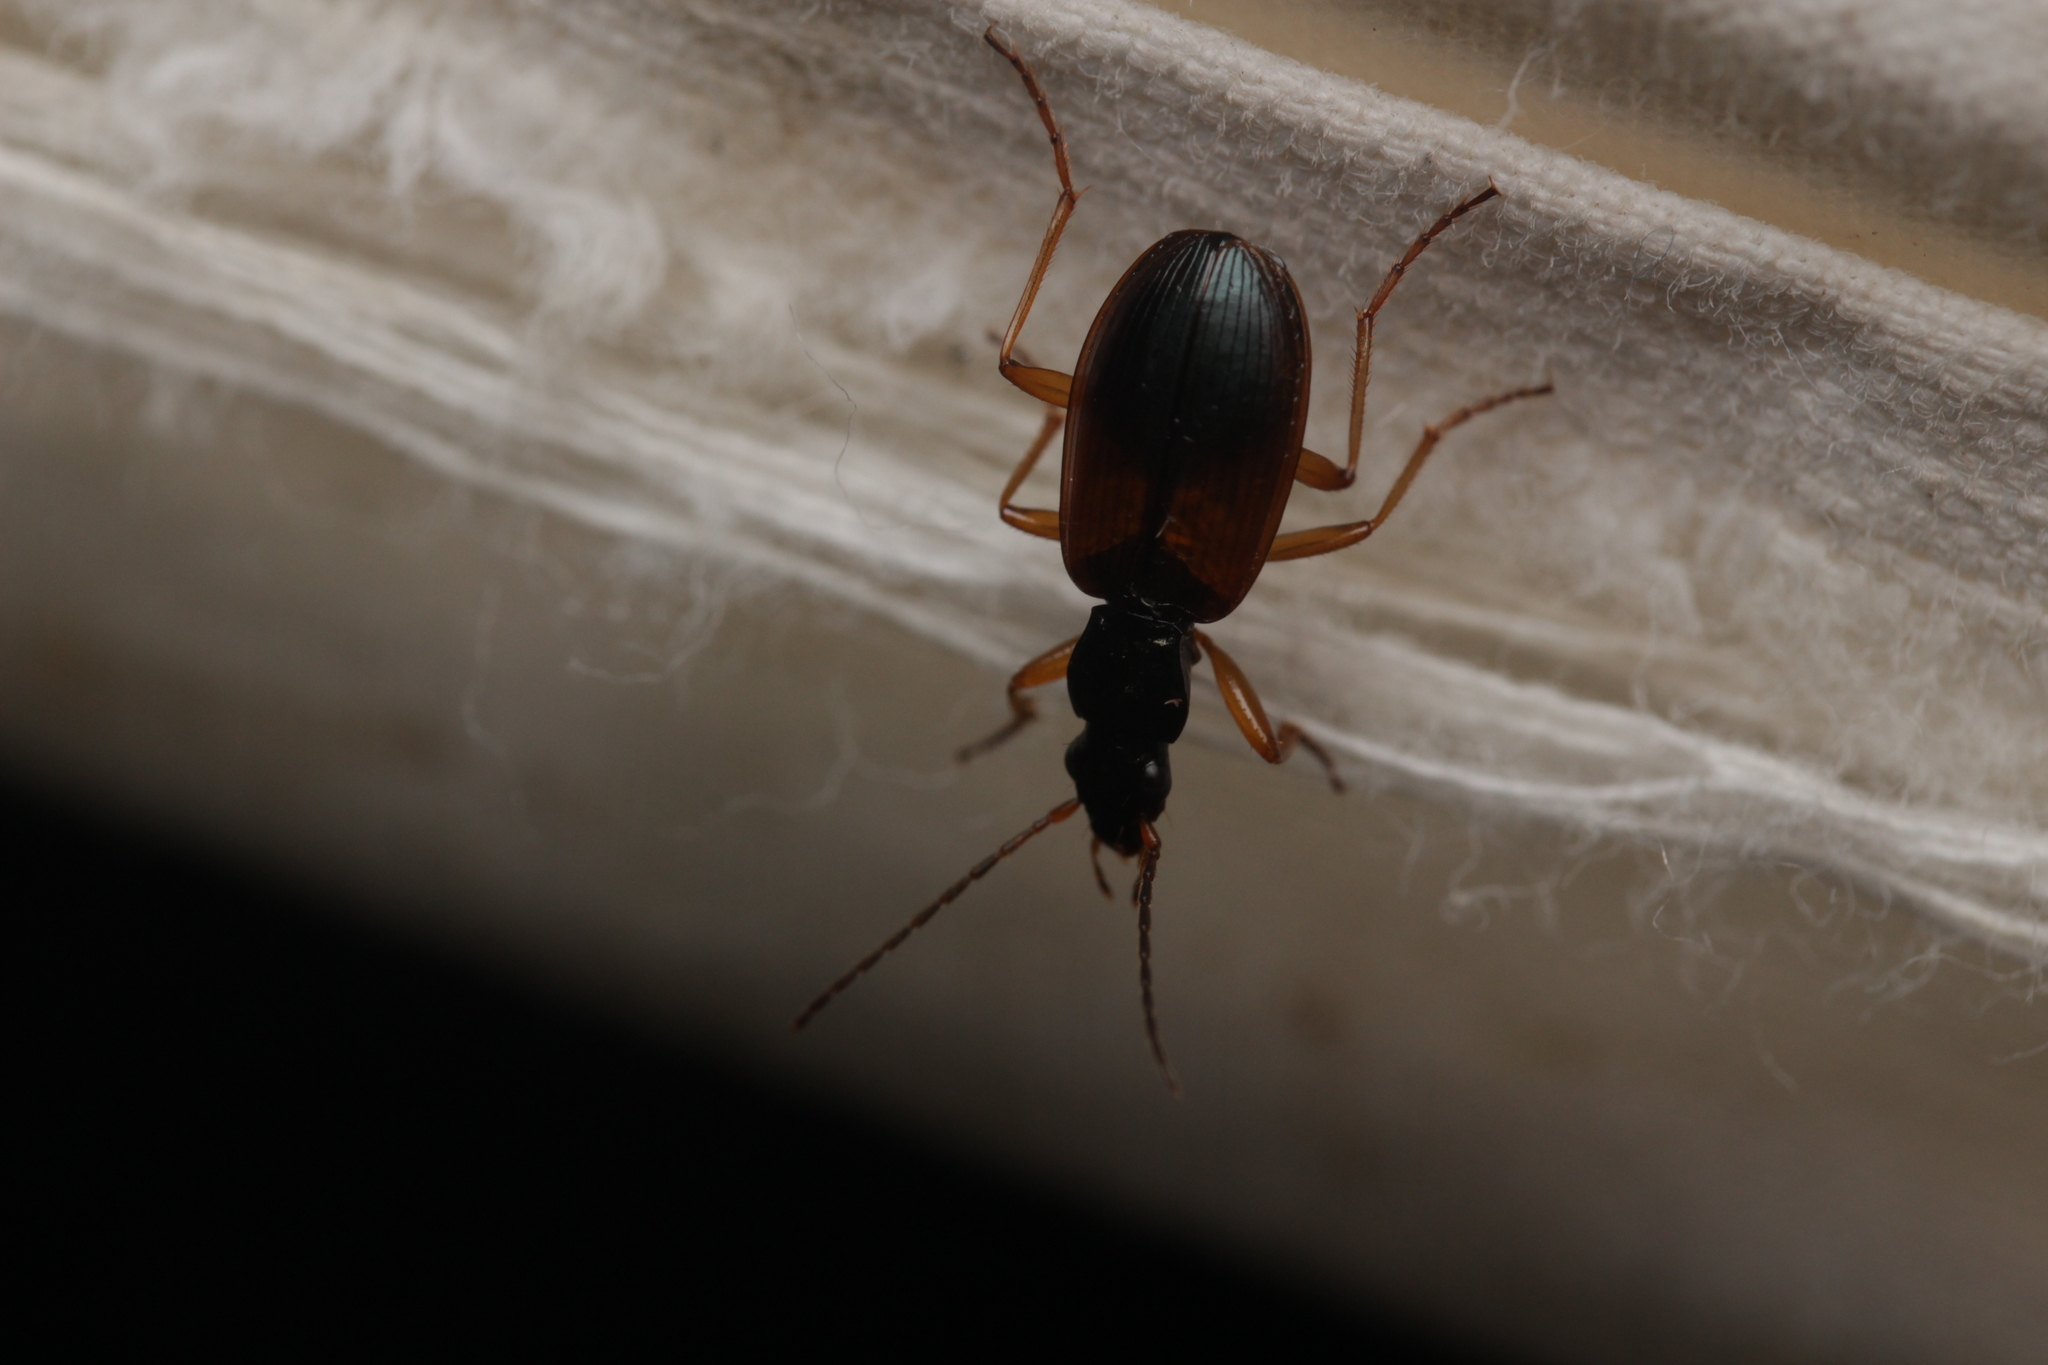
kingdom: Animalia
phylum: Arthropoda
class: Insecta
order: Coleoptera
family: Carabidae
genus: Anchomenus
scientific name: Anchomenus dorsalis
